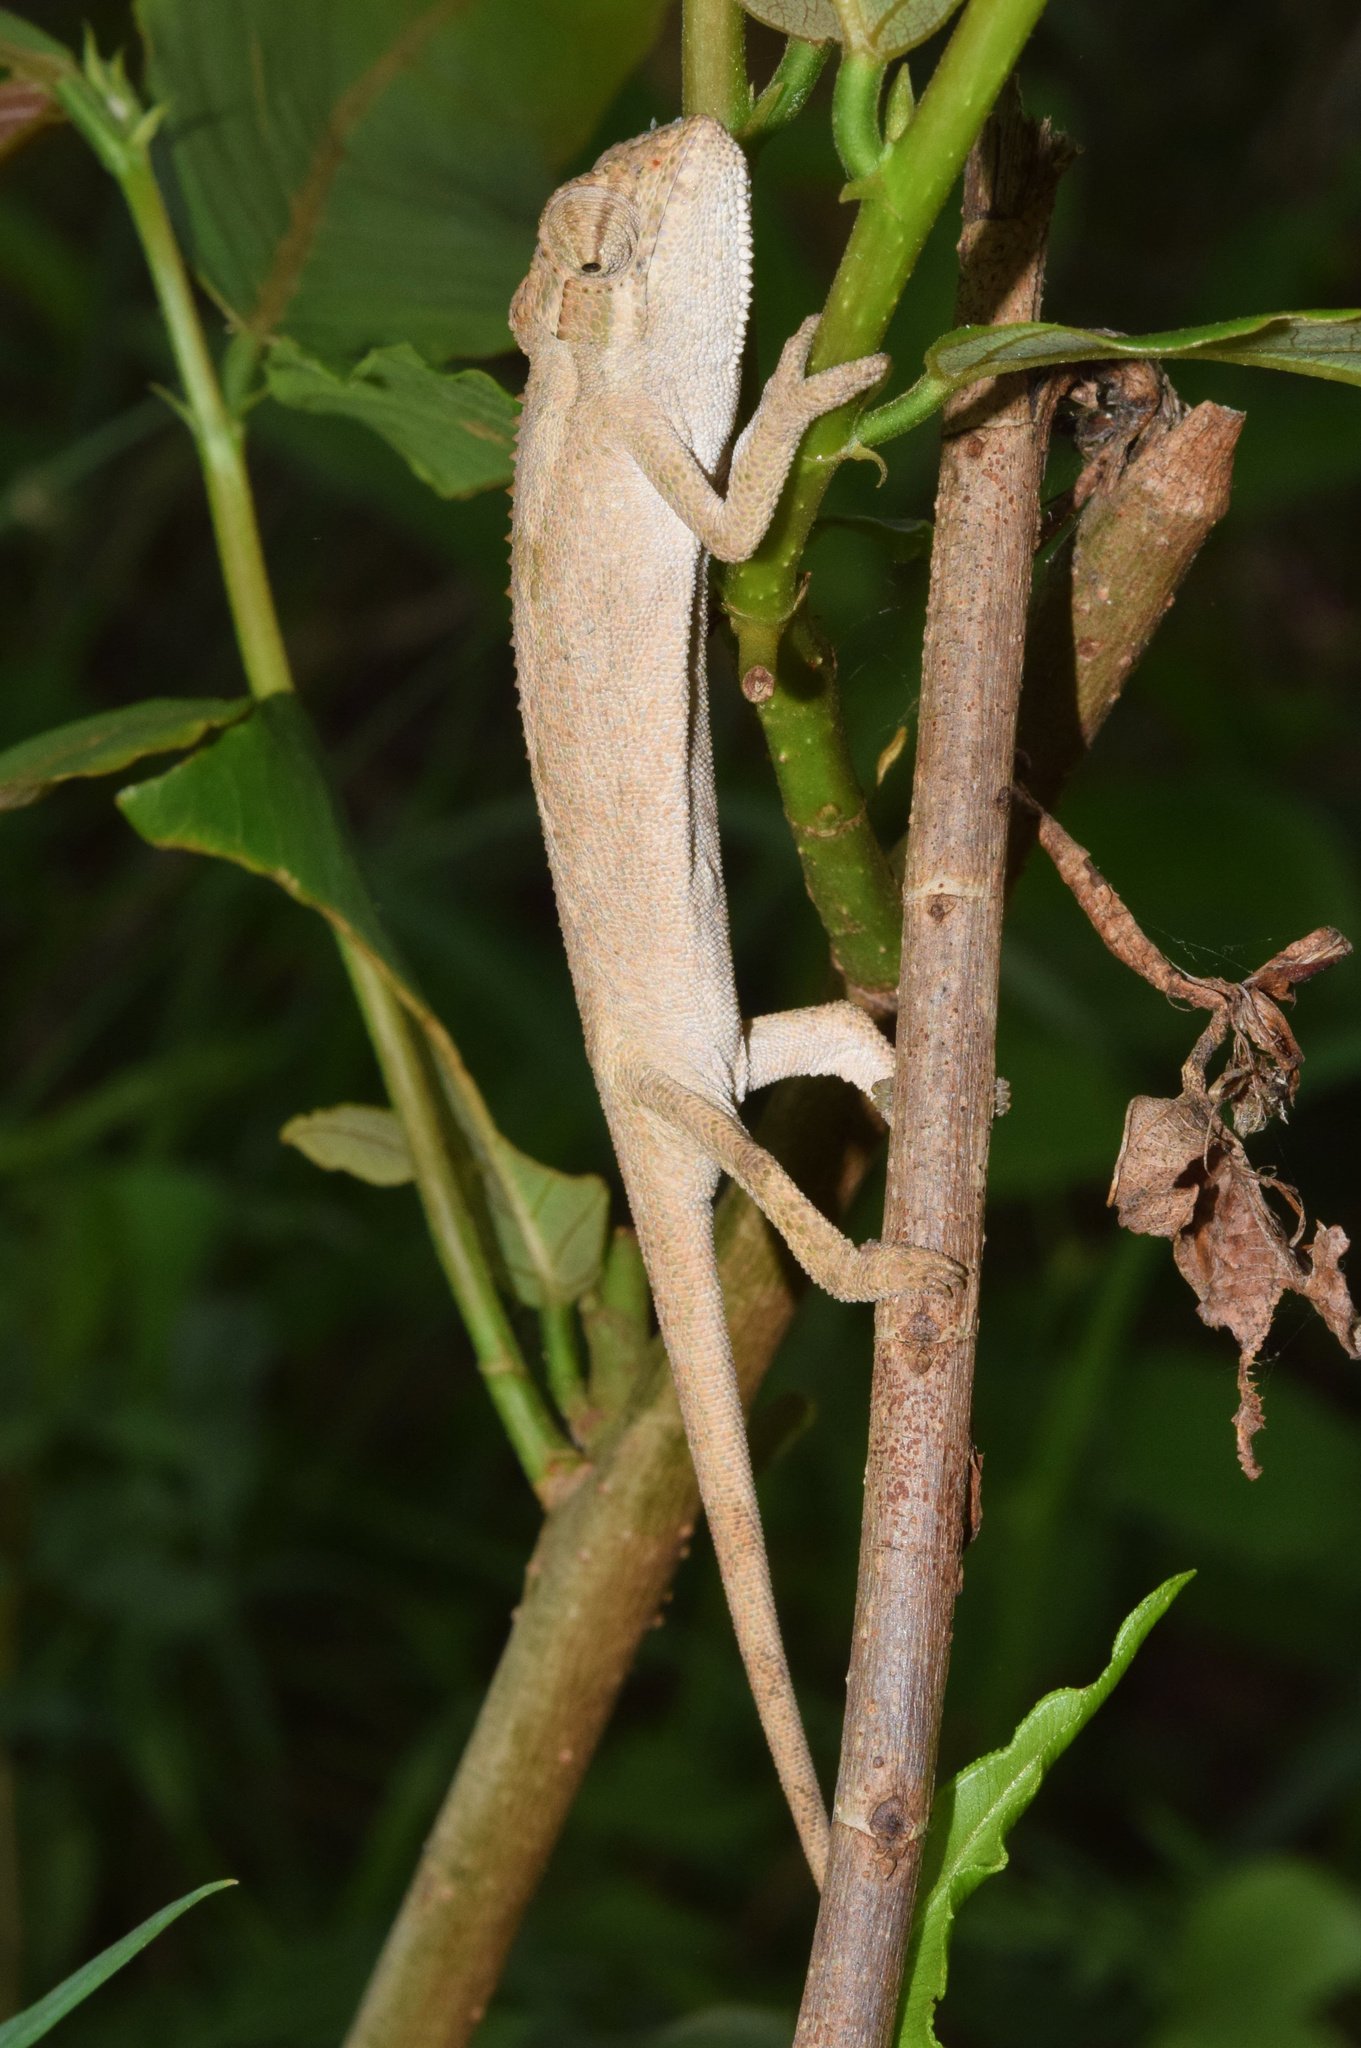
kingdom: Animalia
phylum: Chordata
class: Squamata
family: Chamaeleonidae
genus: Bradypodion
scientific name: Bradypodion melanocephalum
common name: Black-headed dwarf chameleon
